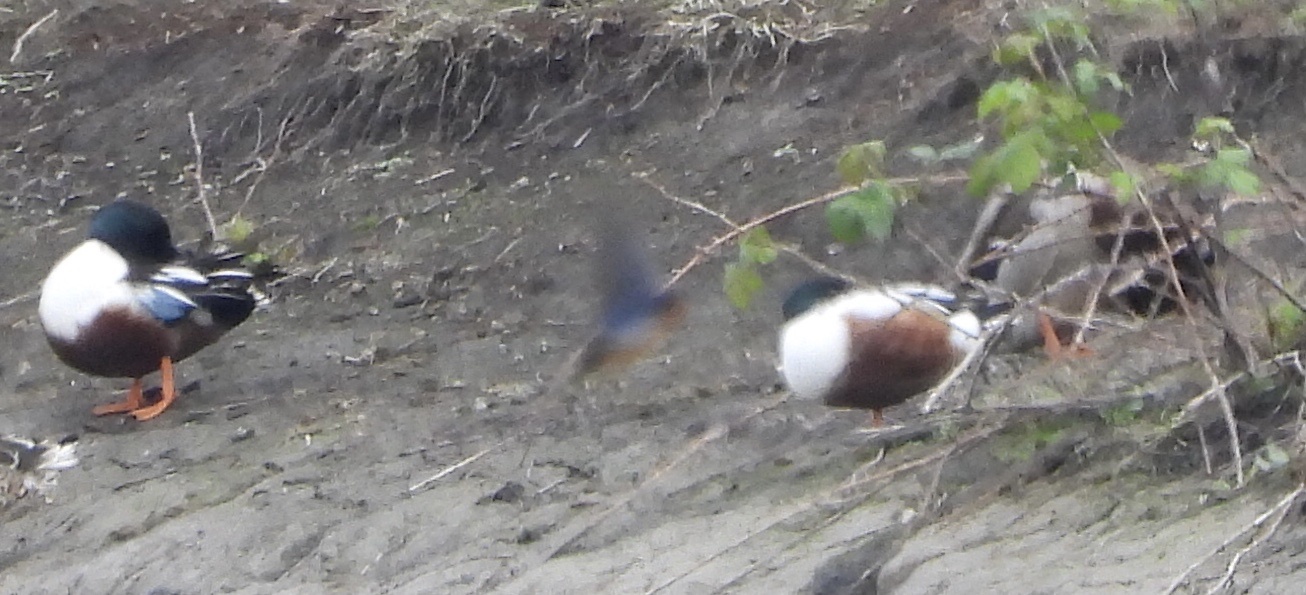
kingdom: Animalia
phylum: Chordata
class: Aves
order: Passeriformes
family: Hirundinidae
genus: Hirundo
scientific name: Hirundo rustica
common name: Barn swallow
